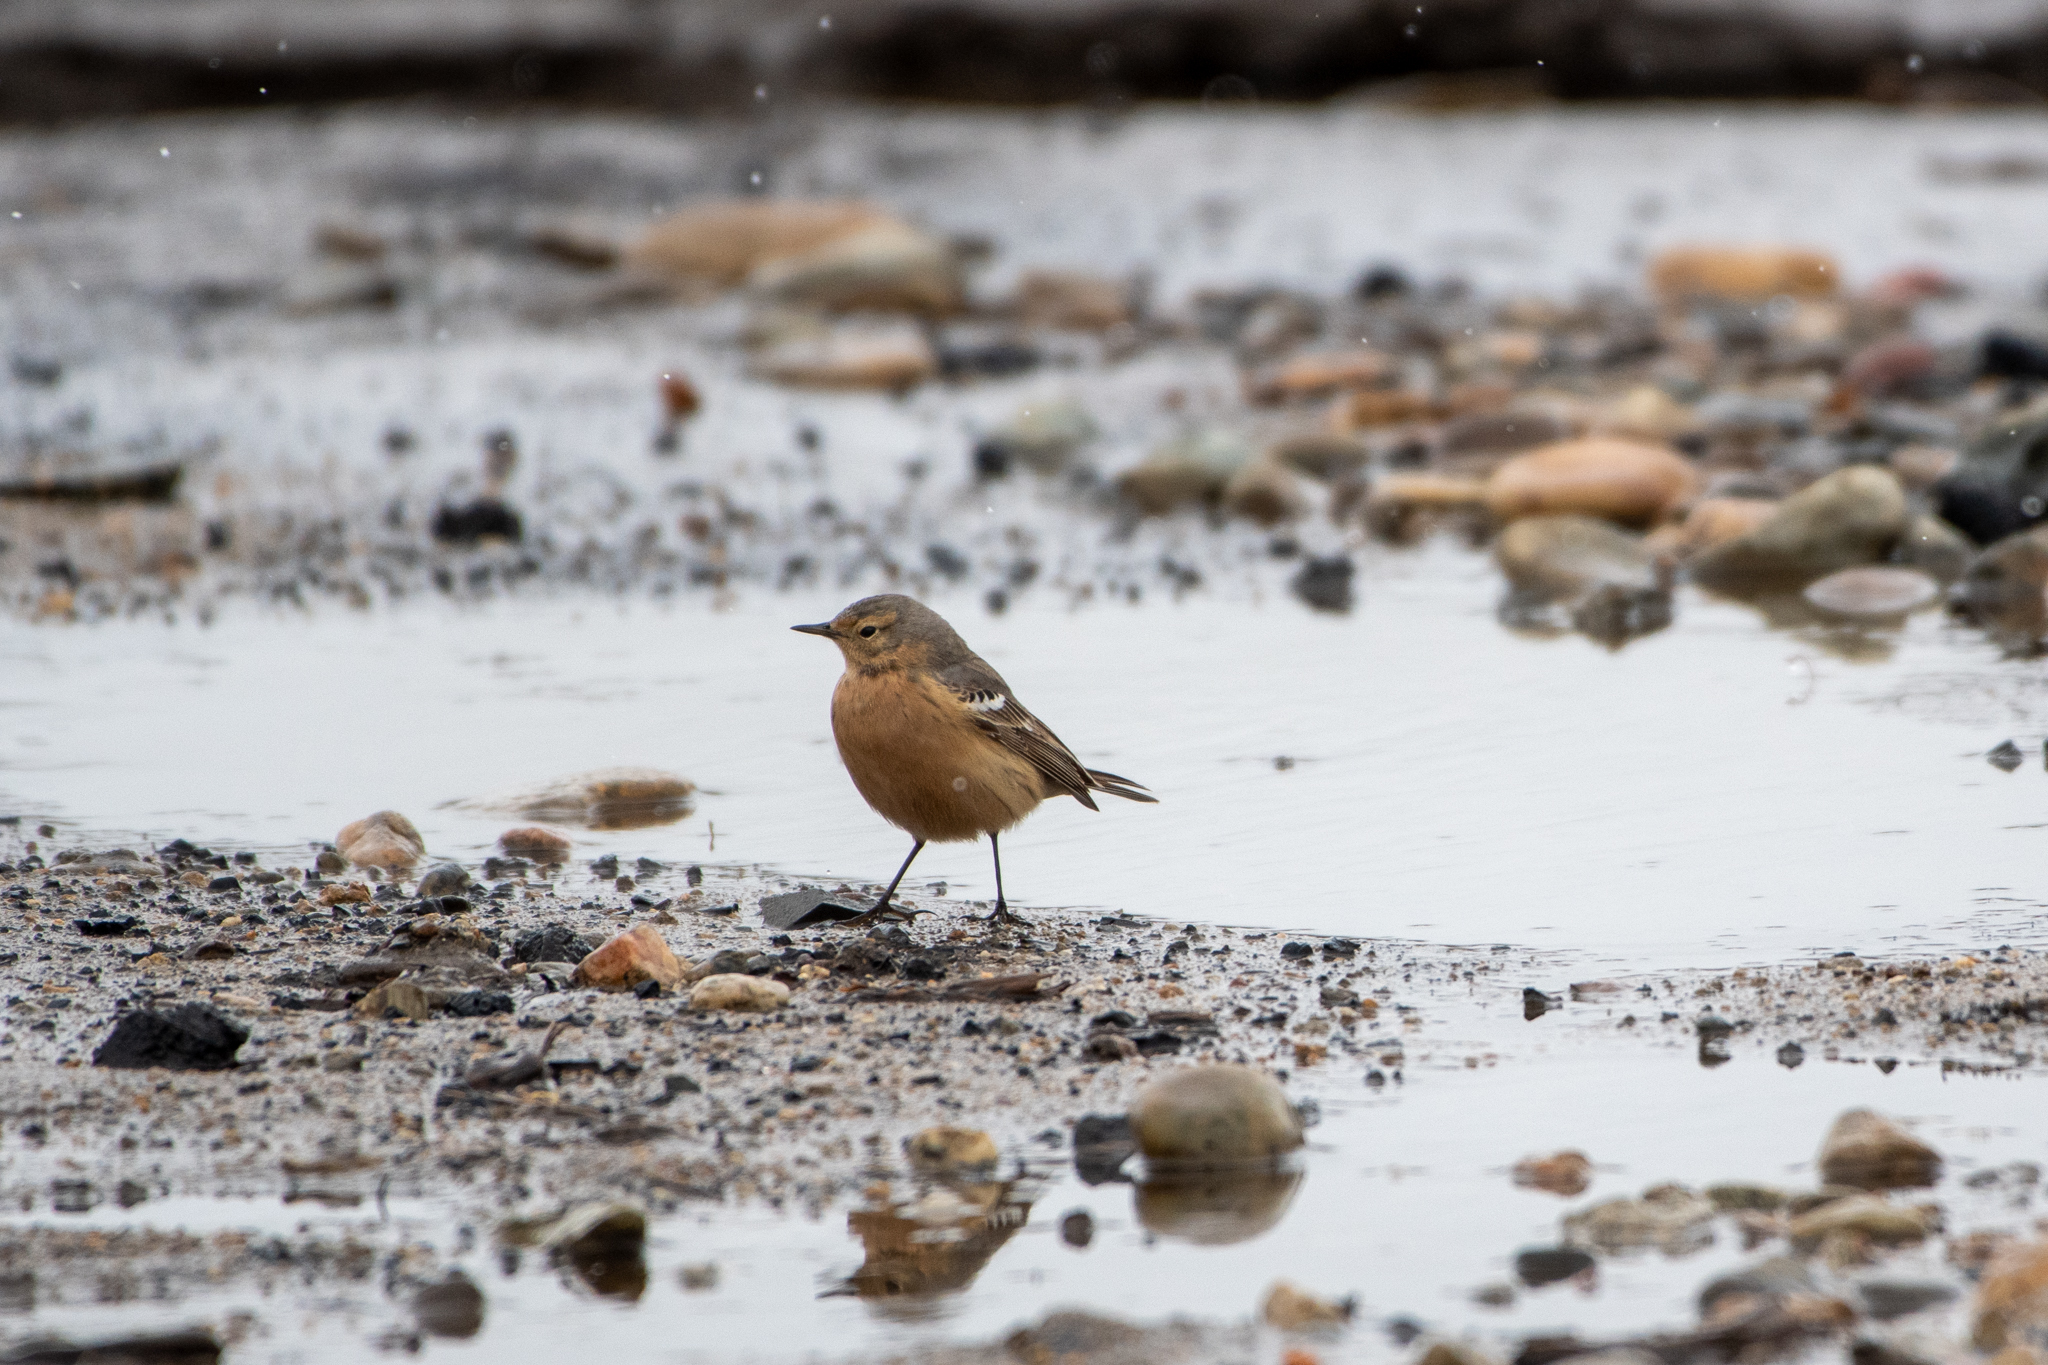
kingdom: Animalia
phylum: Chordata
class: Aves
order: Passeriformes
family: Motacillidae
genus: Anthus
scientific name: Anthus rubescens
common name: Buff-bellied pipit
